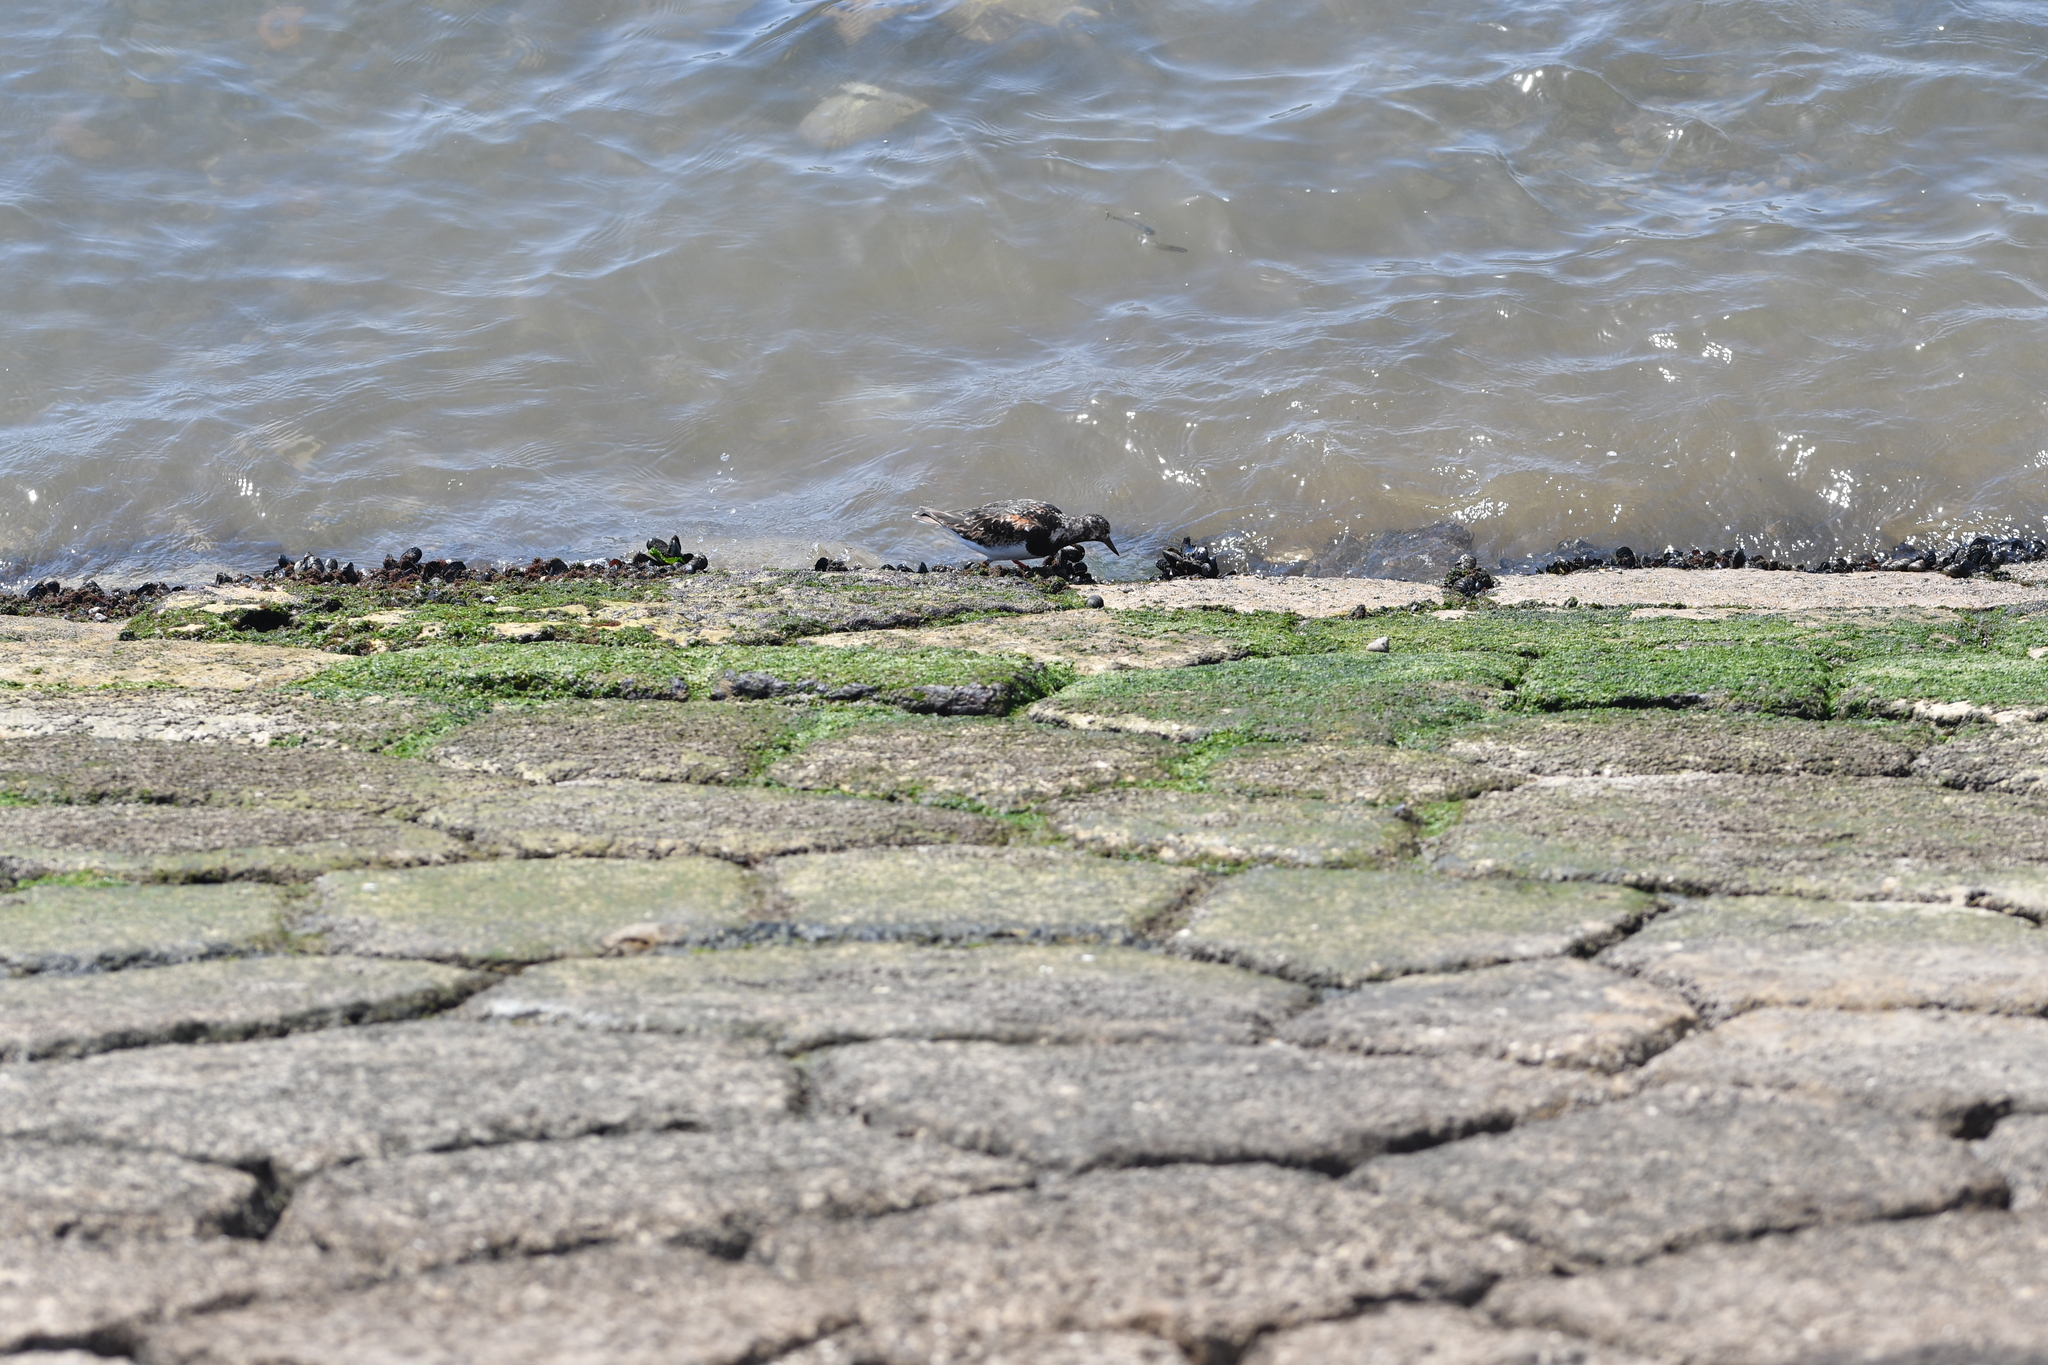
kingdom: Animalia
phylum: Chordata
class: Aves
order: Charadriiformes
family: Scolopacidae
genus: Arenaria
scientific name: Arenaria interpres
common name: Ruddy turnstone
